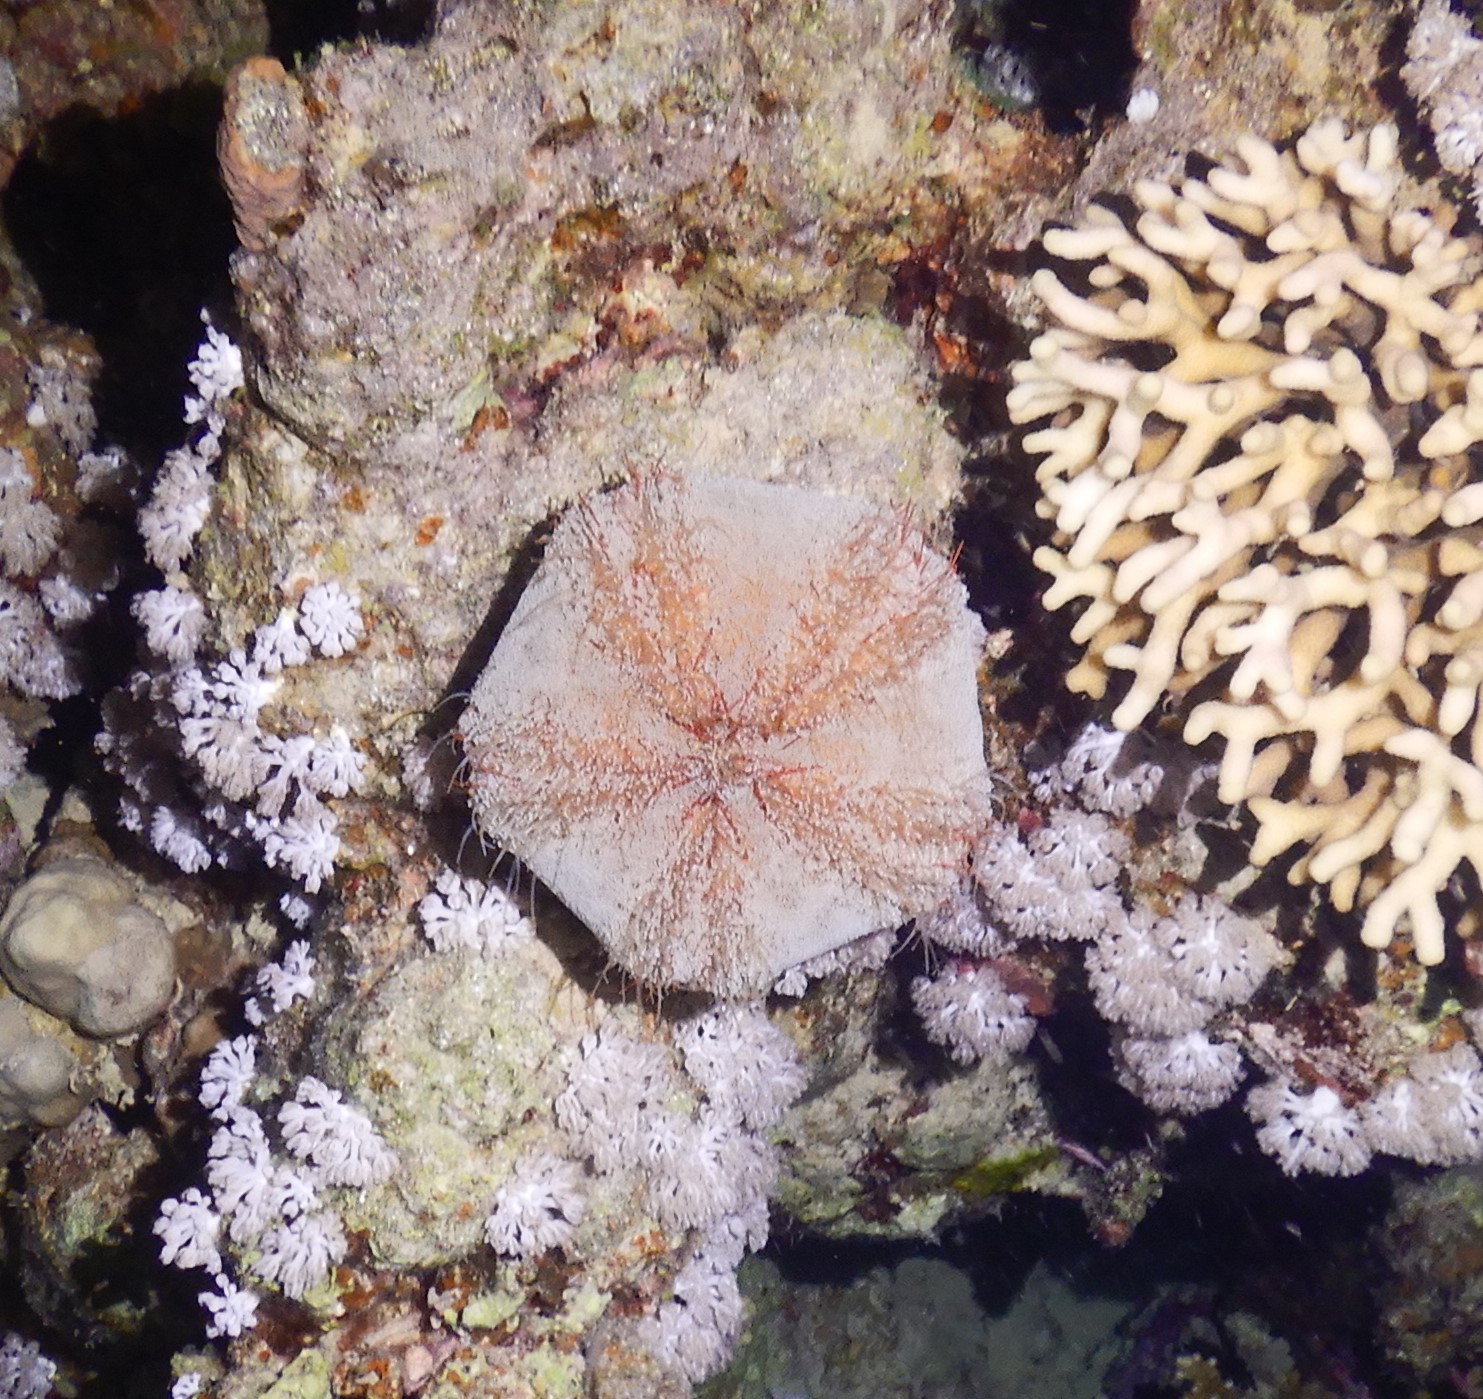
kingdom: Animalia
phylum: Echinodermata
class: Echinoidea
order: Camarodonta
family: Toxopneustidae
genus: Tripneustes
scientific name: Tripneustes gratilla
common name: Bischofsmützenseeigel
